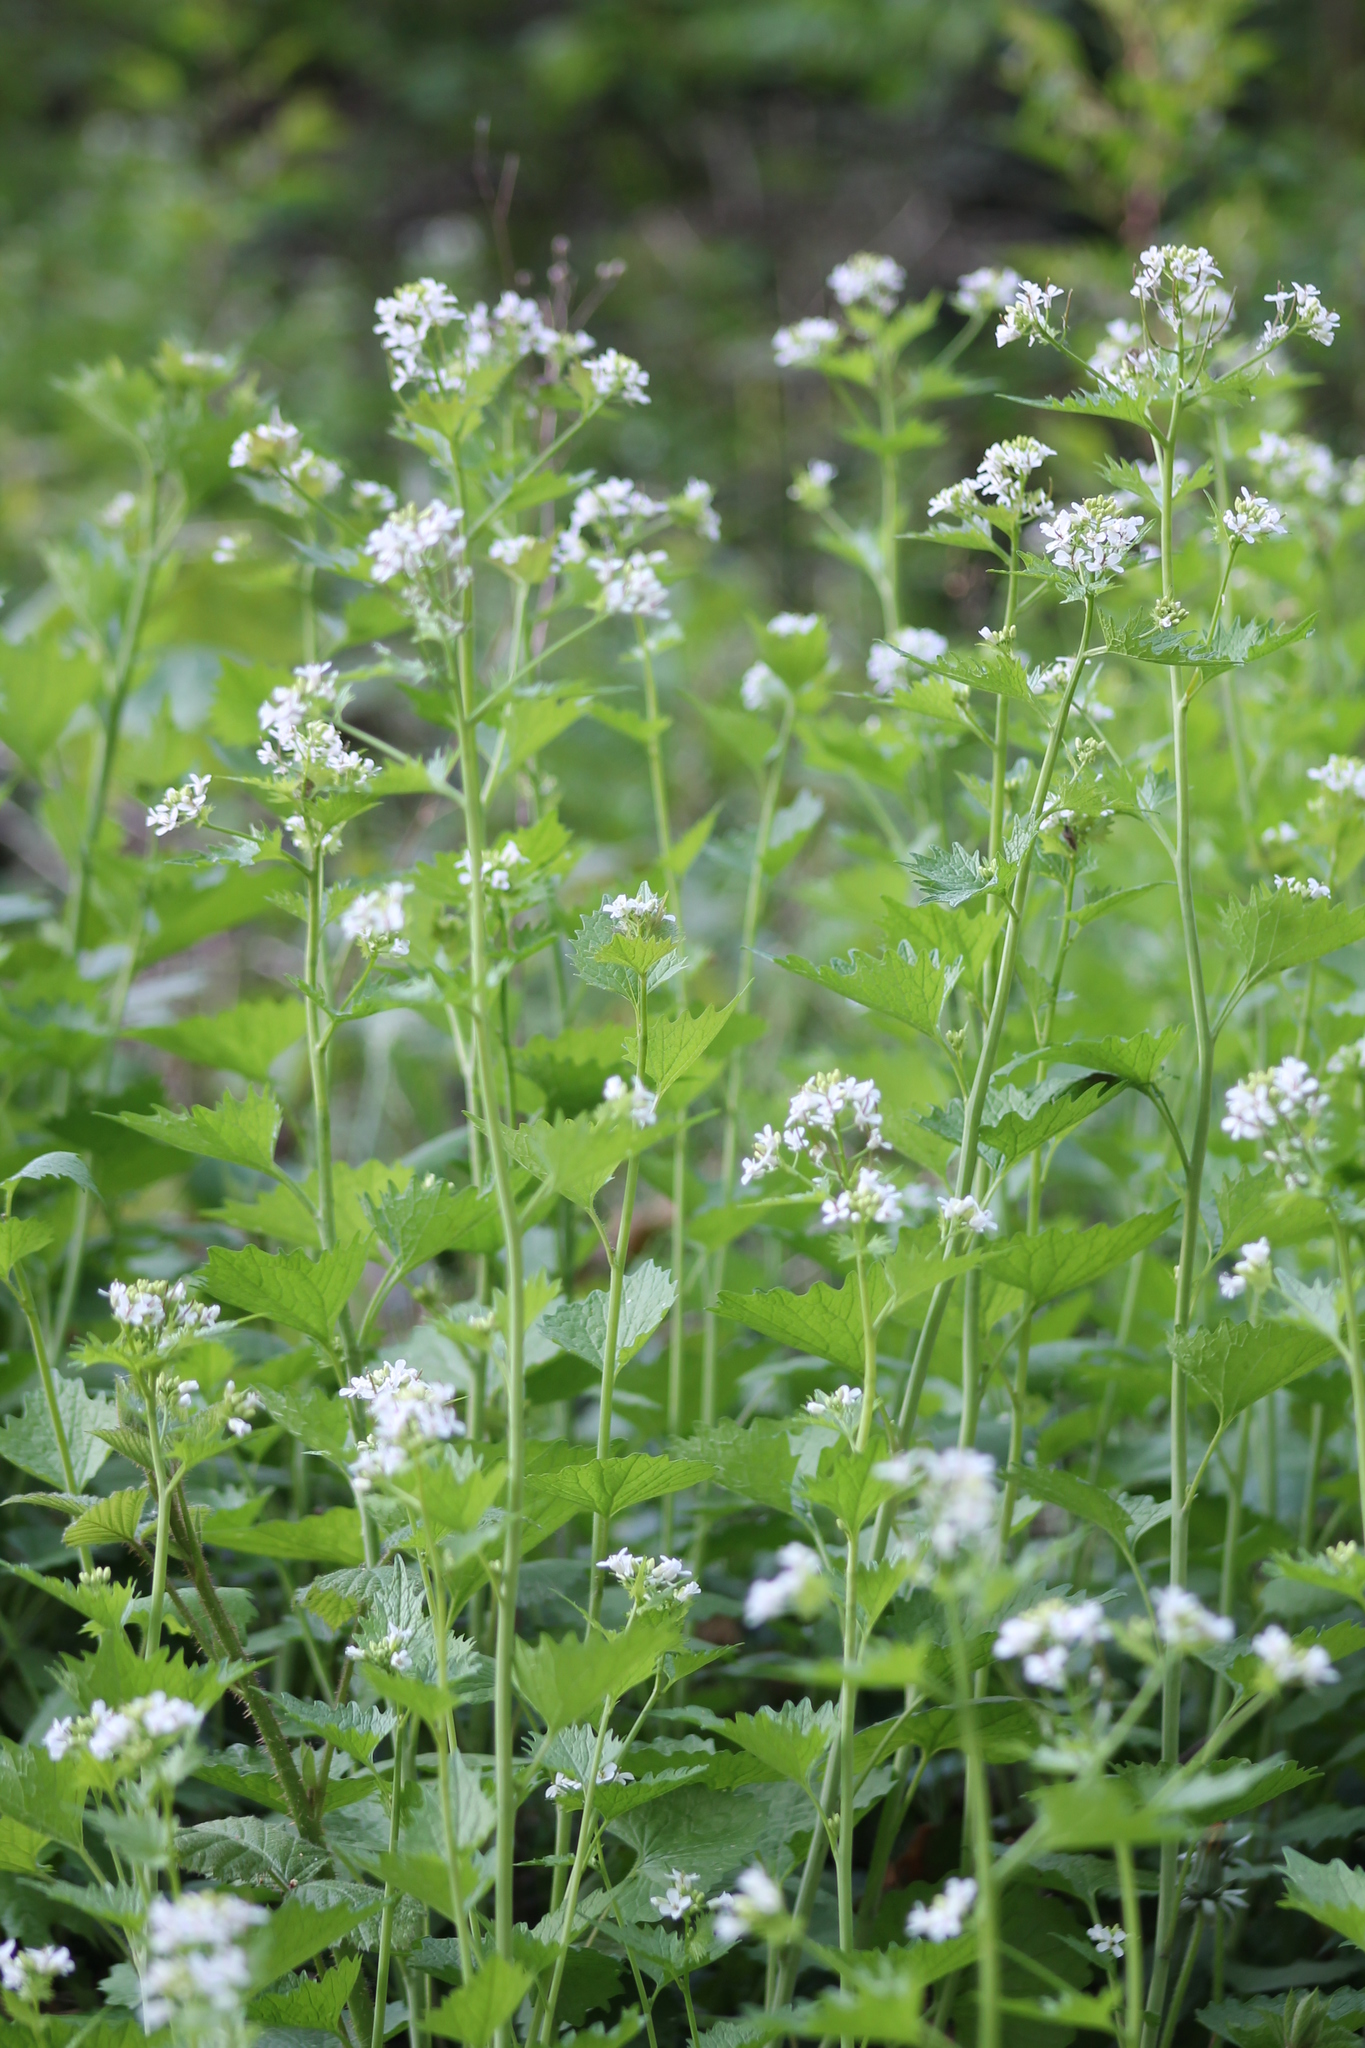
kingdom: Plantae
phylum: Tracheophyta
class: Magnoliopsida
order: Brassicales
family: Brassicaceae
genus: Alliaria
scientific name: Alliaria petiolata
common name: Garlic mustard
